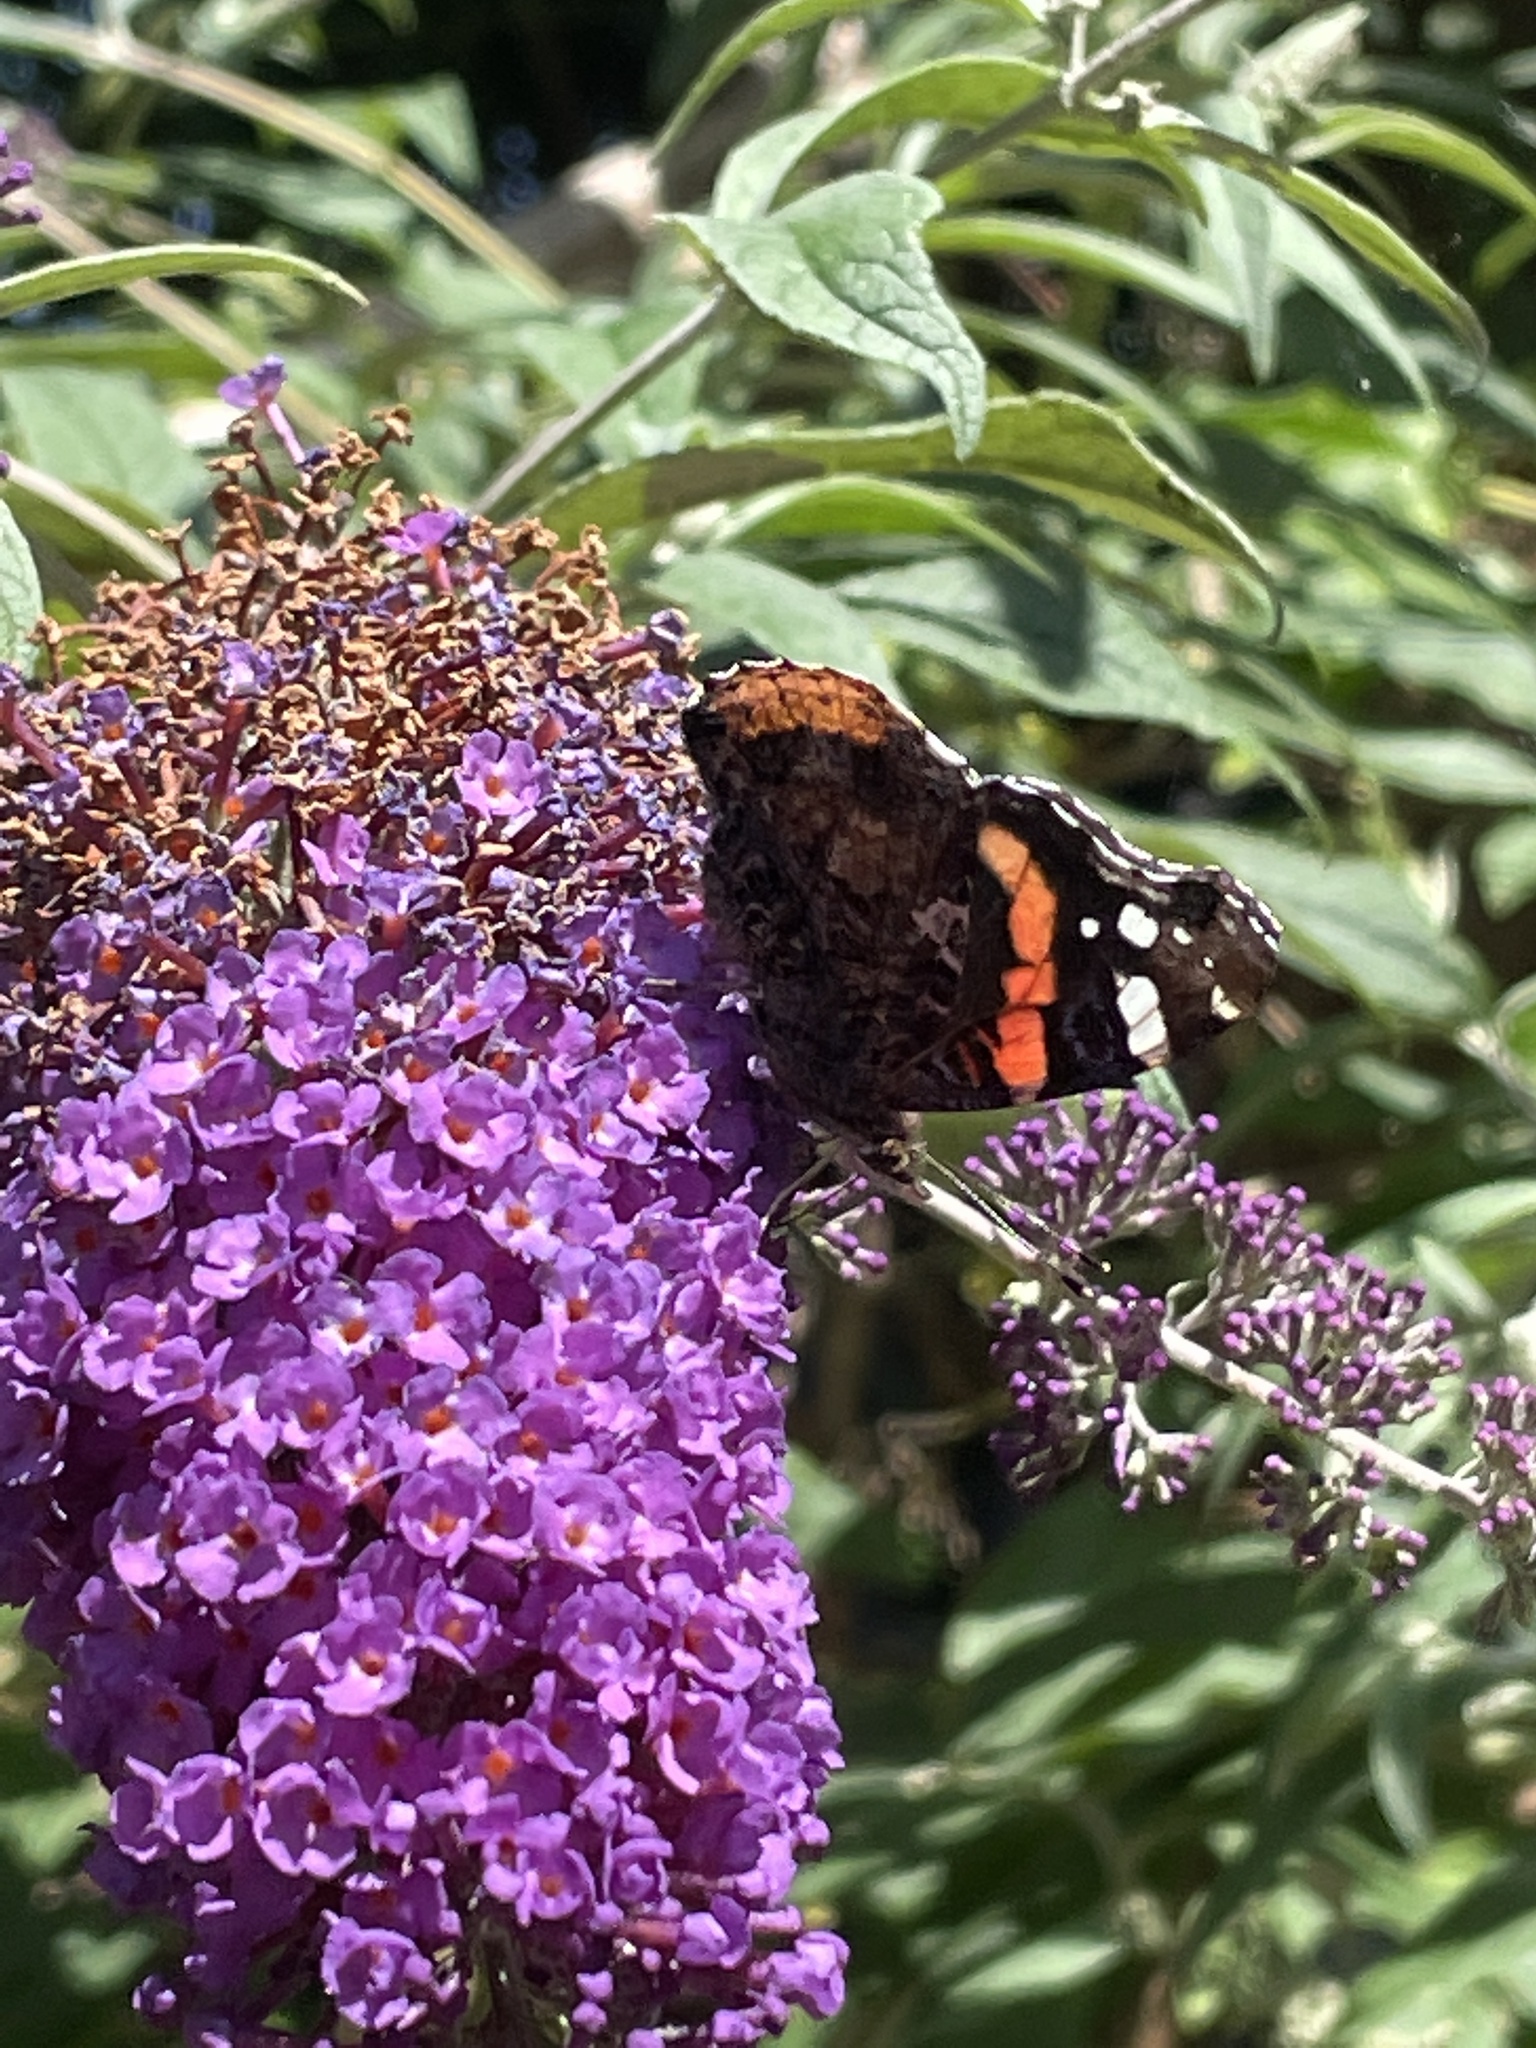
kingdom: Animalia
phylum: Arthropoda
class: Insecta
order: Lepidoptera
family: Nymphalidae
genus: Vanessa
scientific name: Vanessa atalanta
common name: Red admiral
